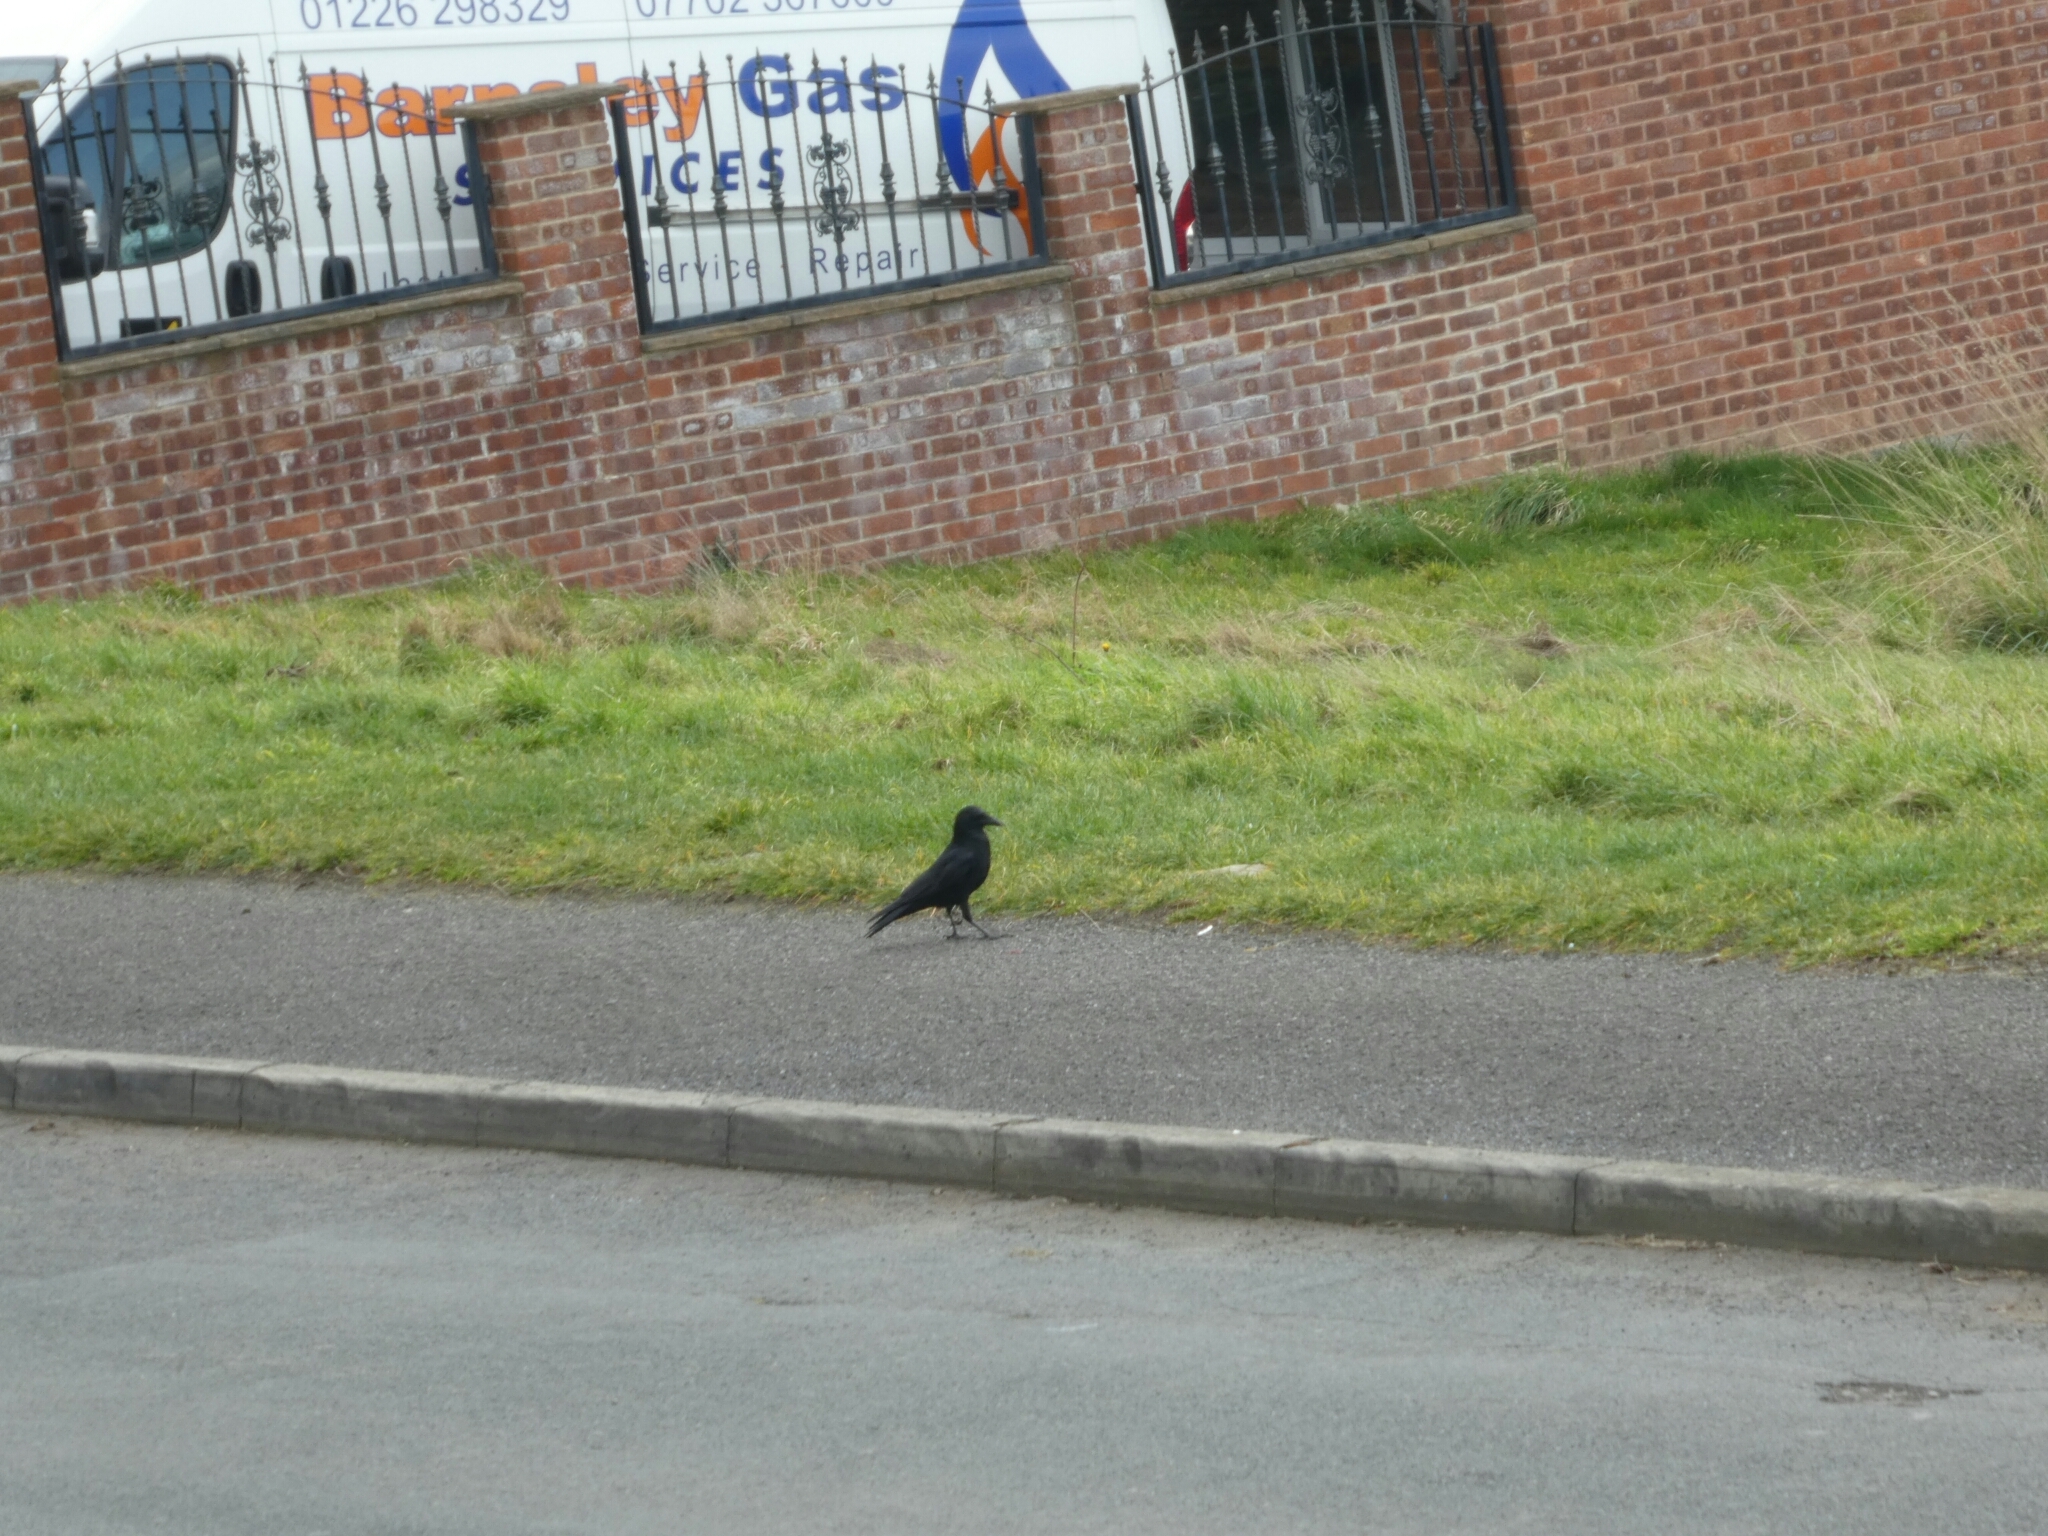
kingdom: Animalia
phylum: Chordata
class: Aves
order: Passeriformes
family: Corvidae
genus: Corvus
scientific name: Corvus corone
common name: Carrion crow
